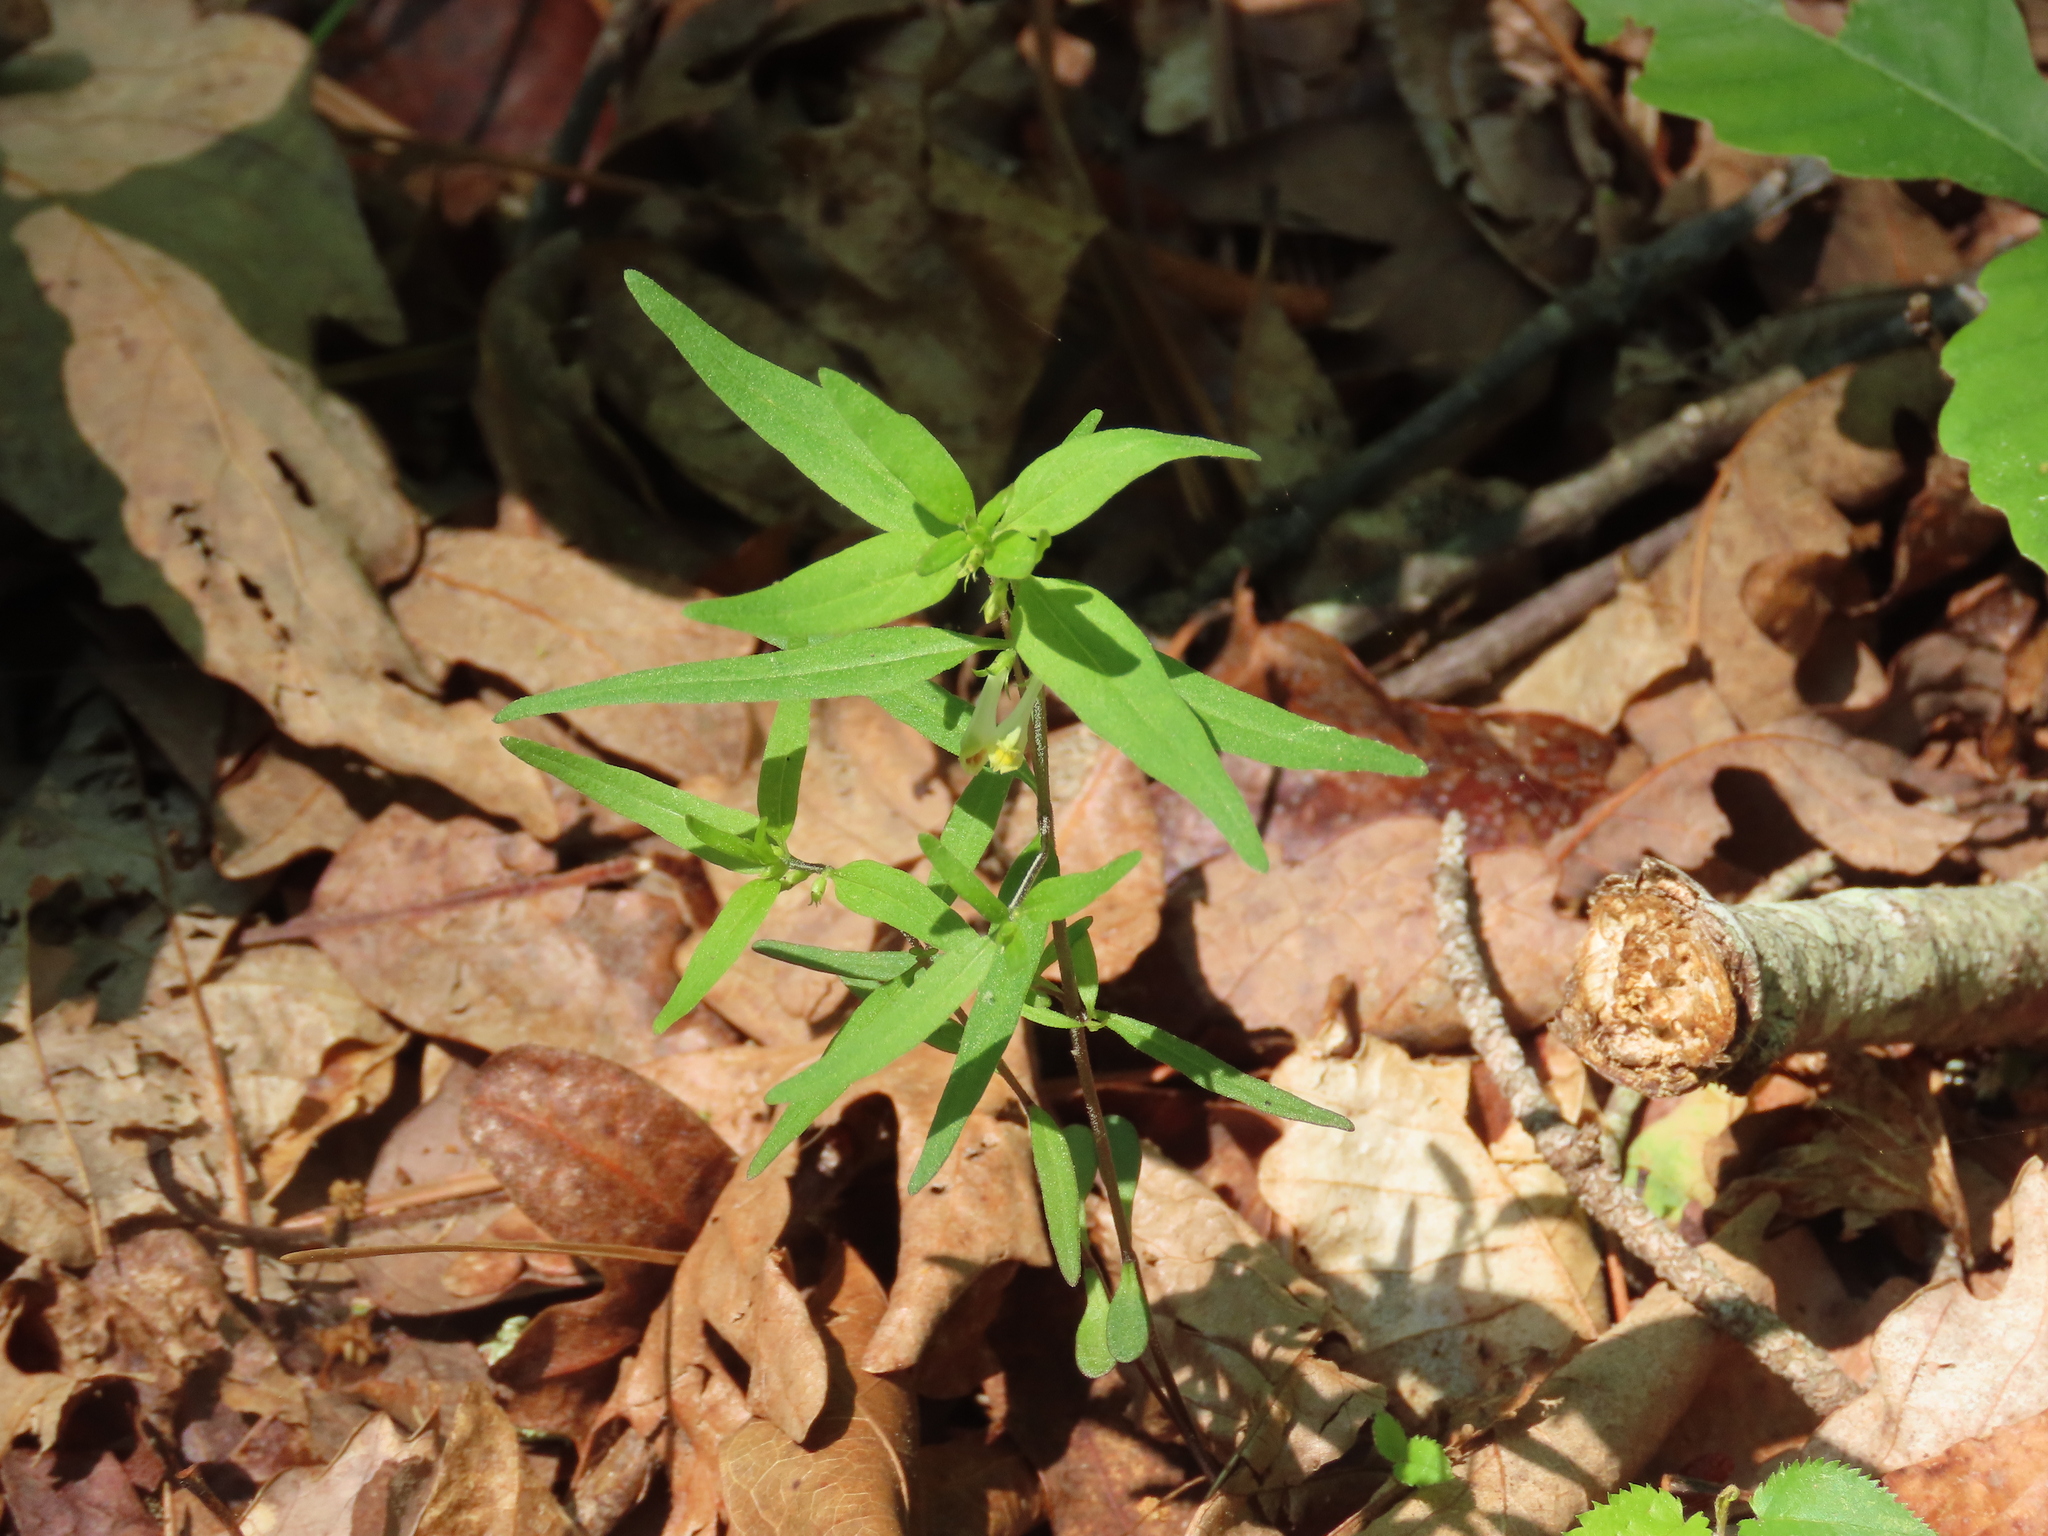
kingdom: Plantae
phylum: Tracheophyta
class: Magnoliopsida
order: Lamiales
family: Orobanchaceae
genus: Melampyrum
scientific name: Melampyrum lineare
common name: American cow-wheat
